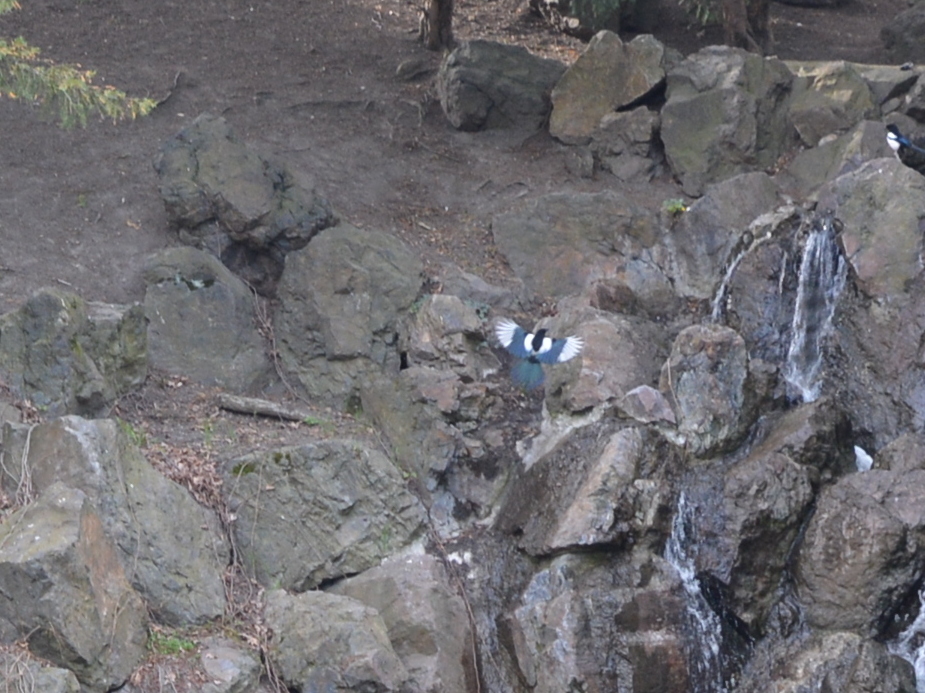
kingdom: Animalia
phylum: Chordata
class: Aves
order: Passeriformes
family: Corvidae
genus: Pica
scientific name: Pica pica
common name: Eurasian magpie
